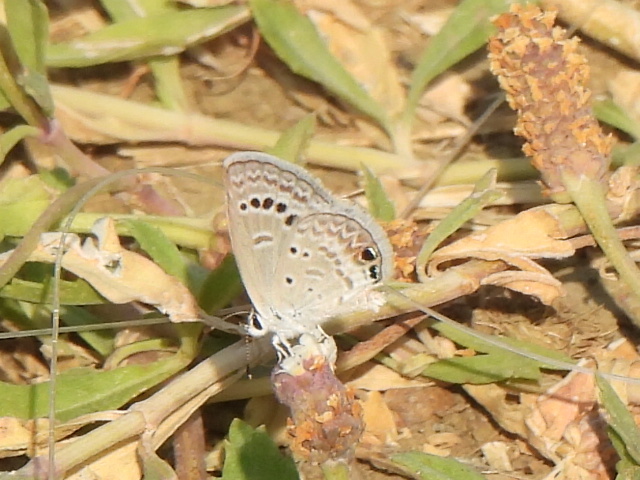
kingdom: Animalia
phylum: Arthropoda
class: Insecta
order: Lepidoptera
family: Lycaenidae
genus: Echinargus
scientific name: Echinargus isola
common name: Reakirt's blue
